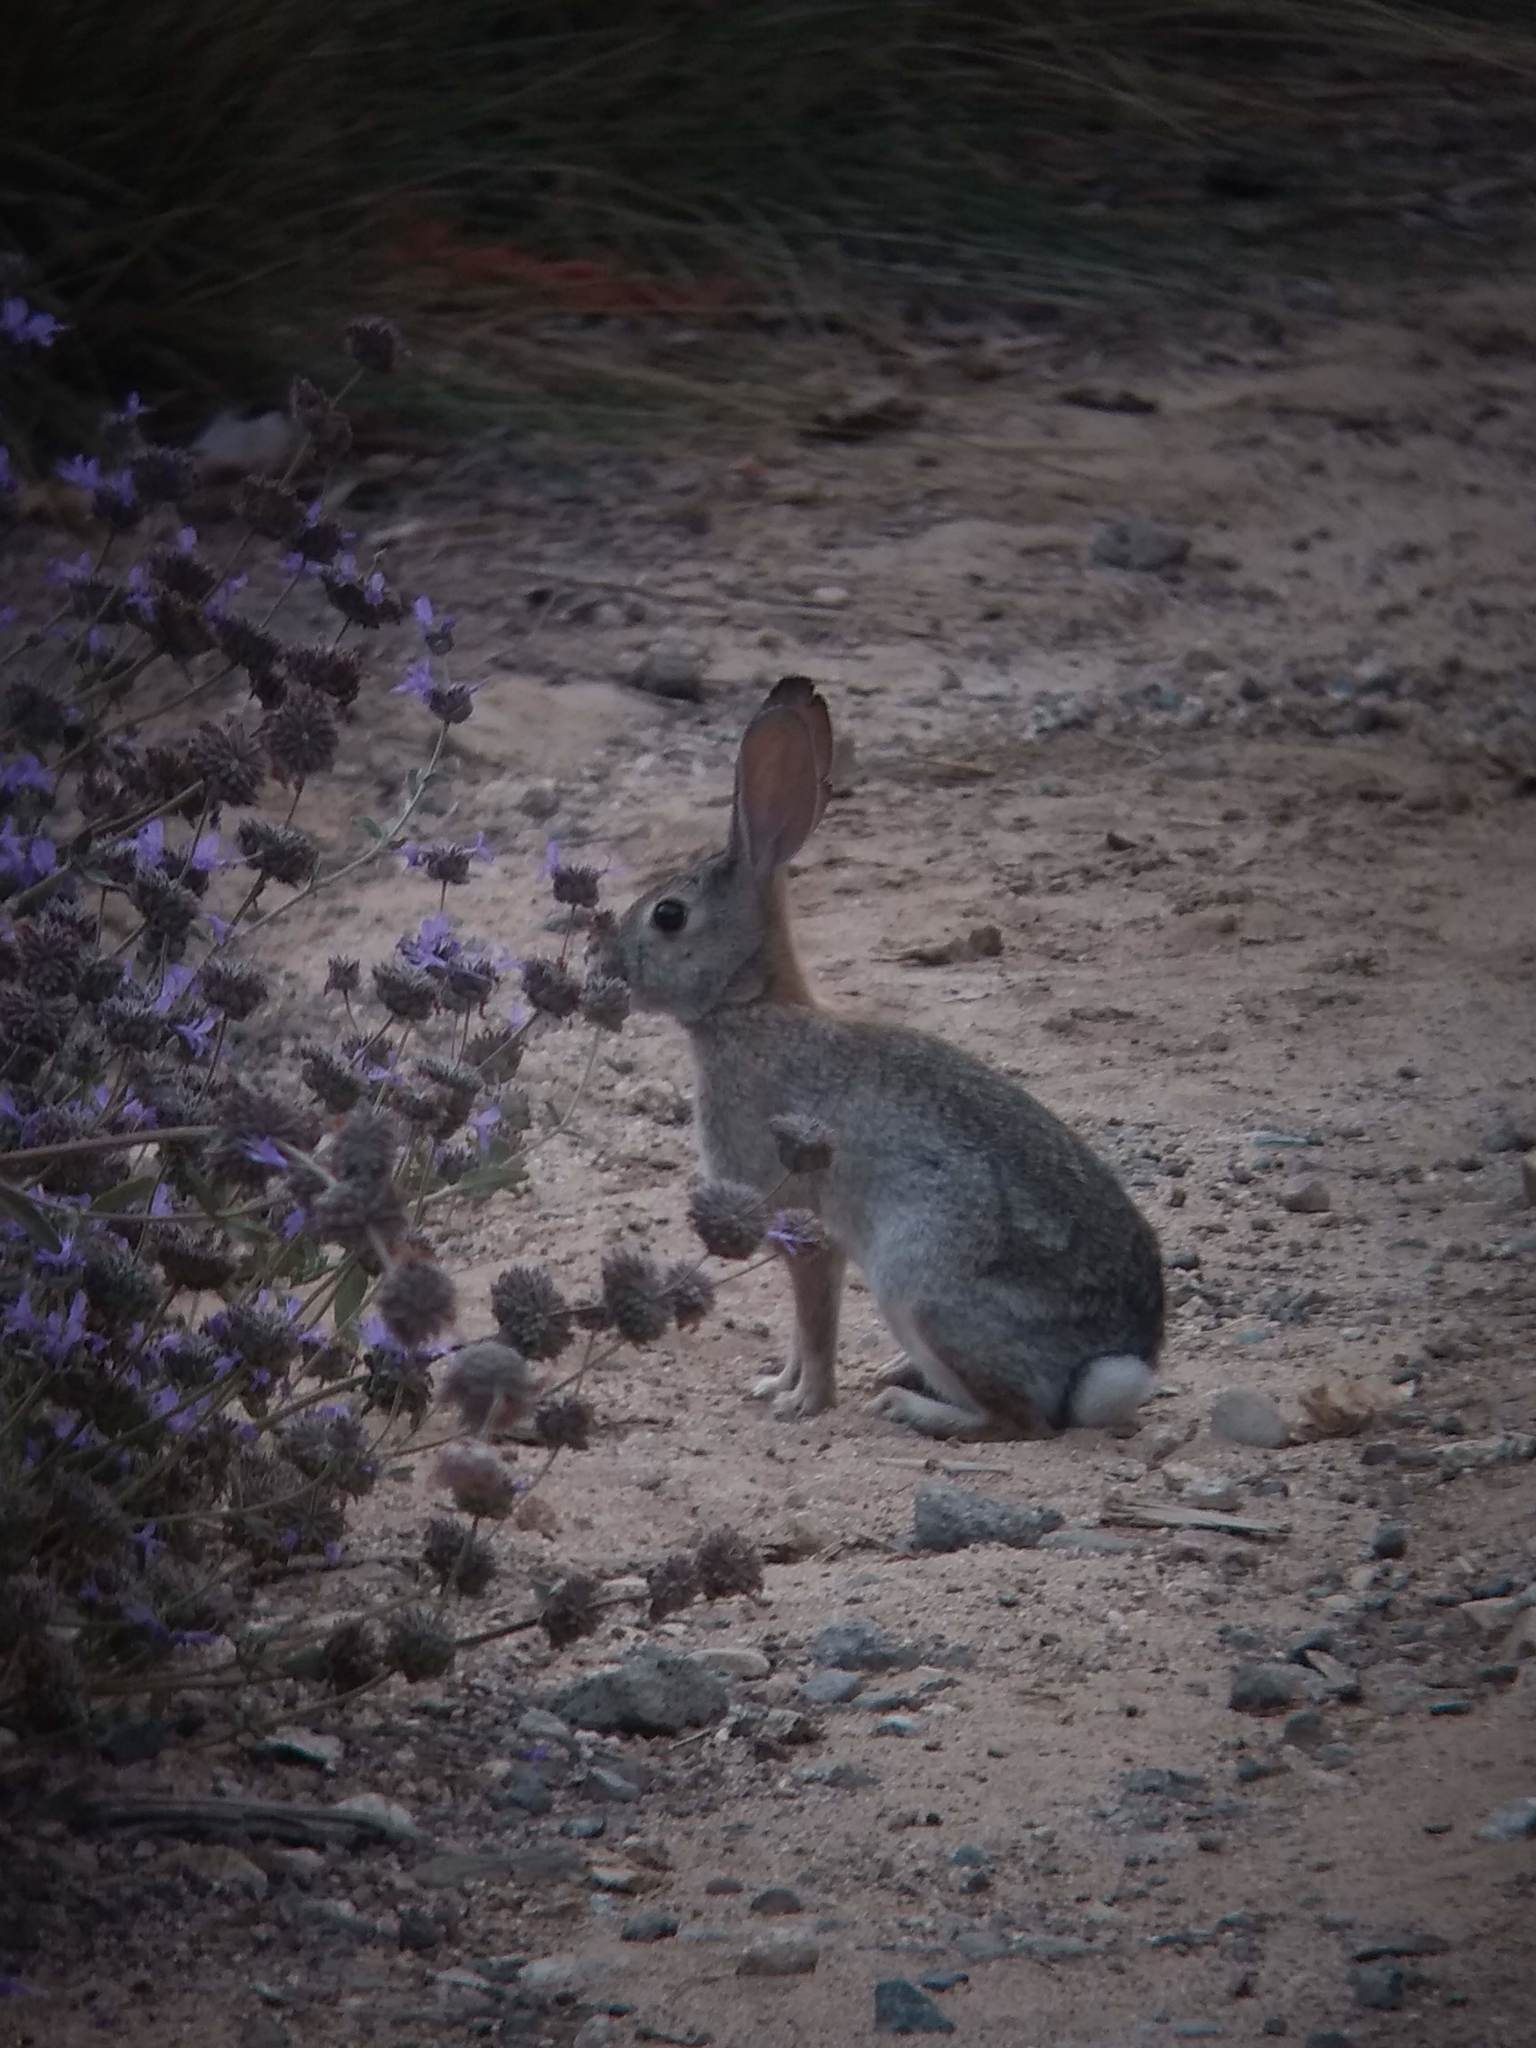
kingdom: Animalia
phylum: Chordata
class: Mammalia
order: Lagomorpha
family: Leporidae
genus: Sylvilagus
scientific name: Sylvilagus audubonii
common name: Desert cottontail
